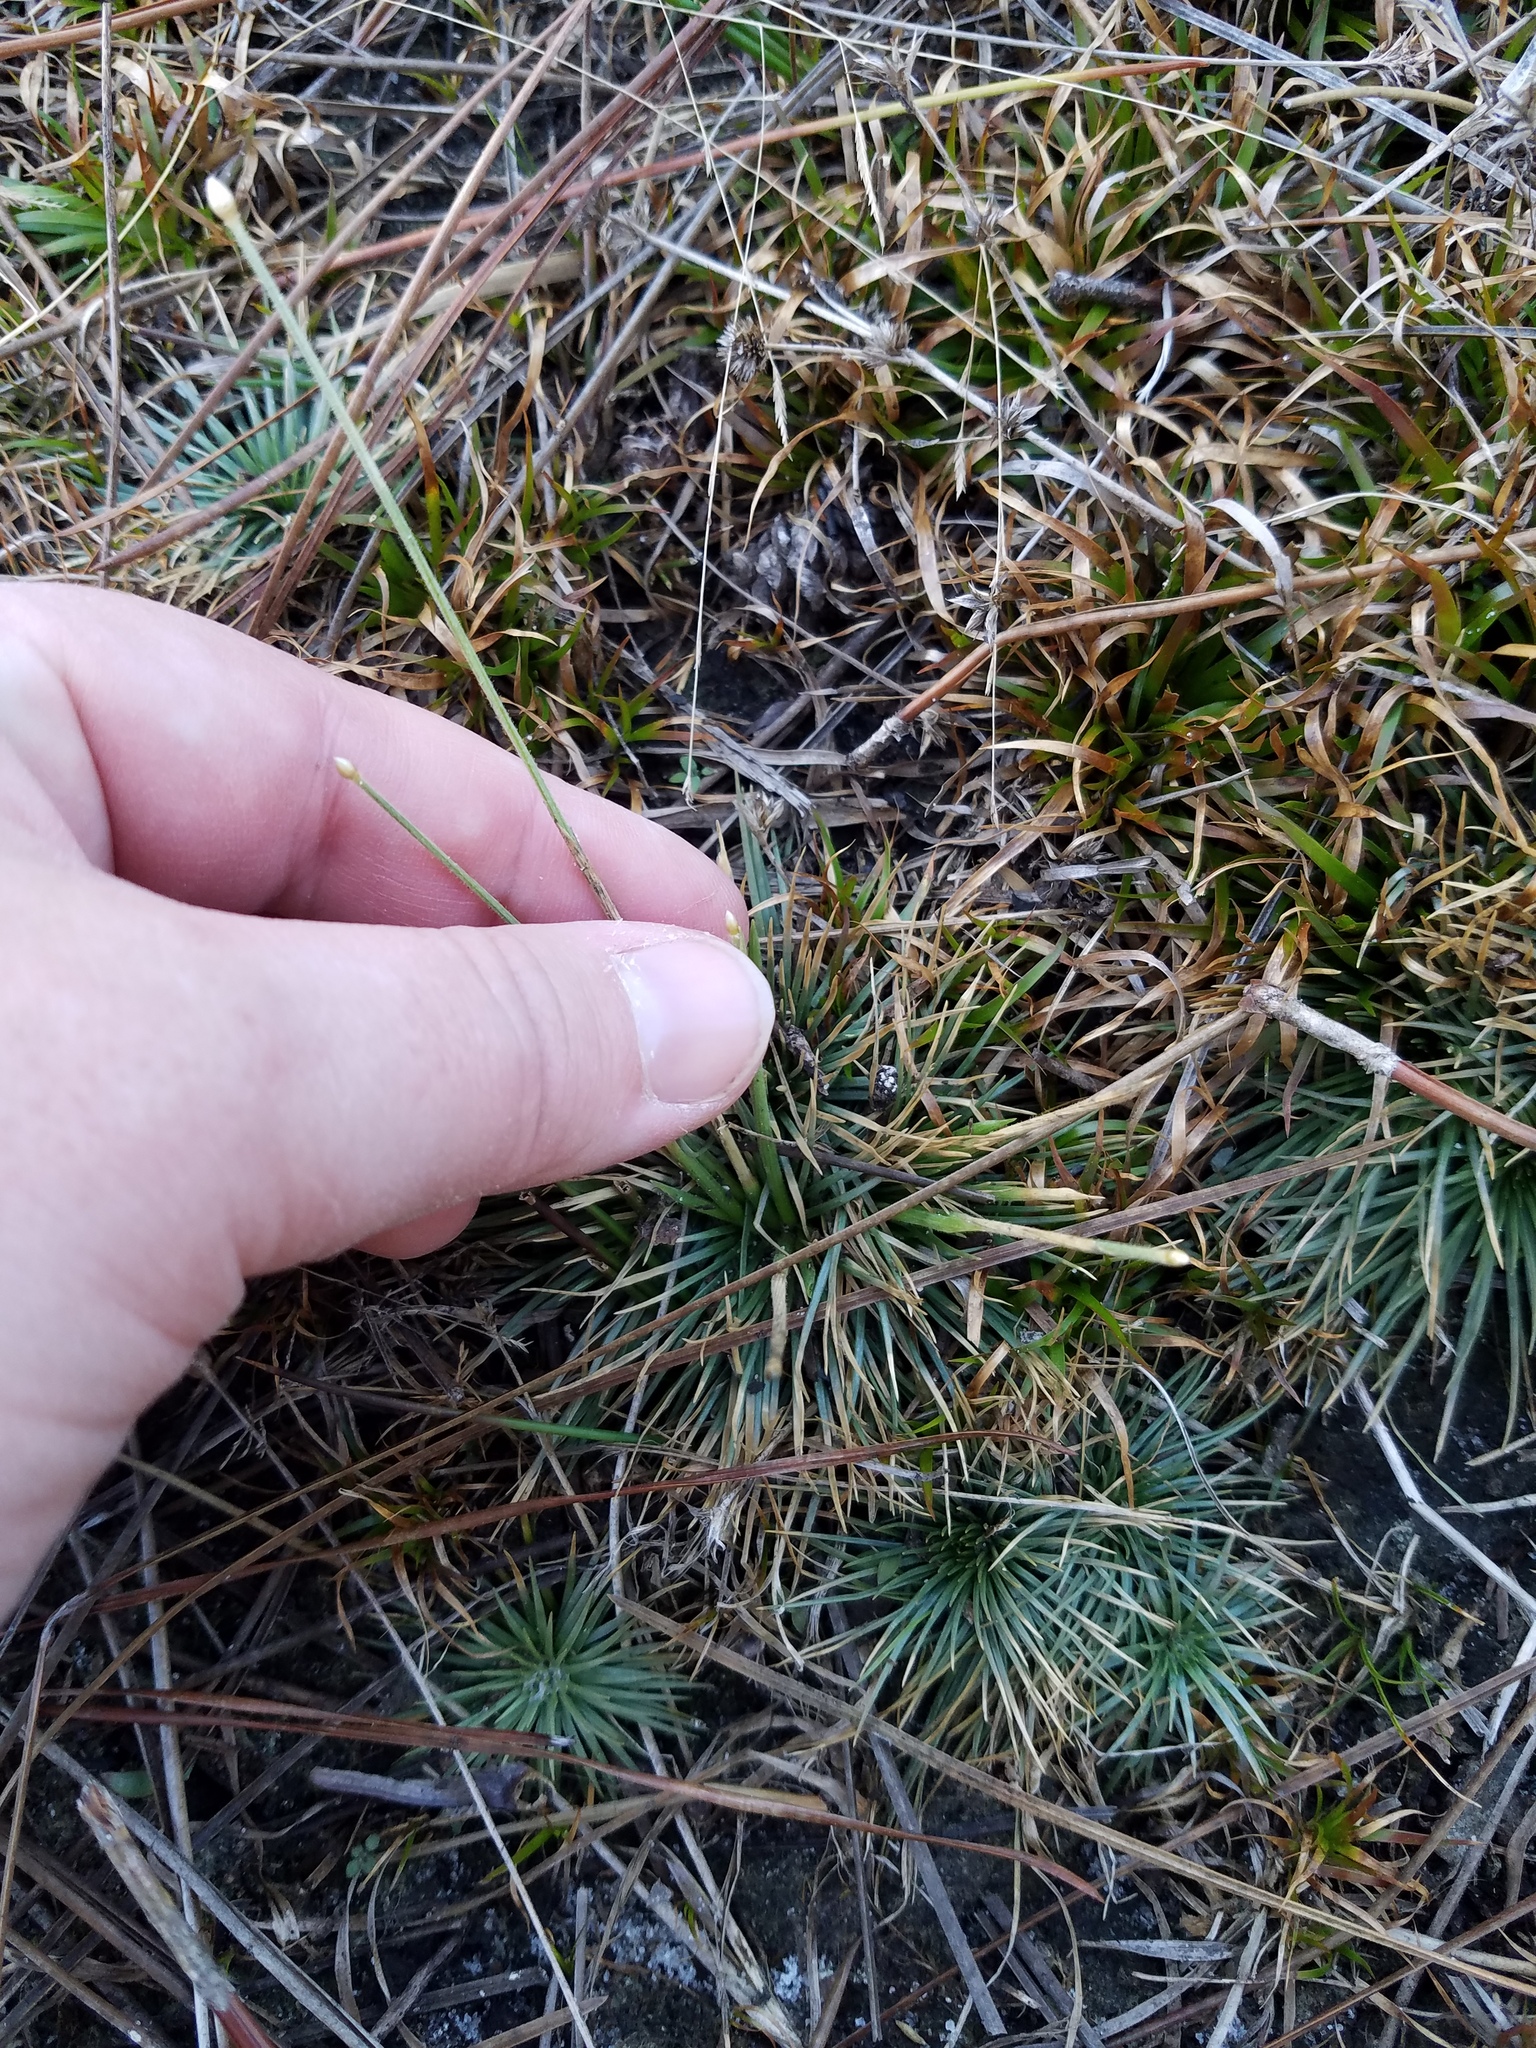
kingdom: Plantae
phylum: Tracheophyta
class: Liliopsida
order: Poales
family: Eriocaulaceae
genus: Syngonanthus
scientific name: Syngonanthus flavidulus
